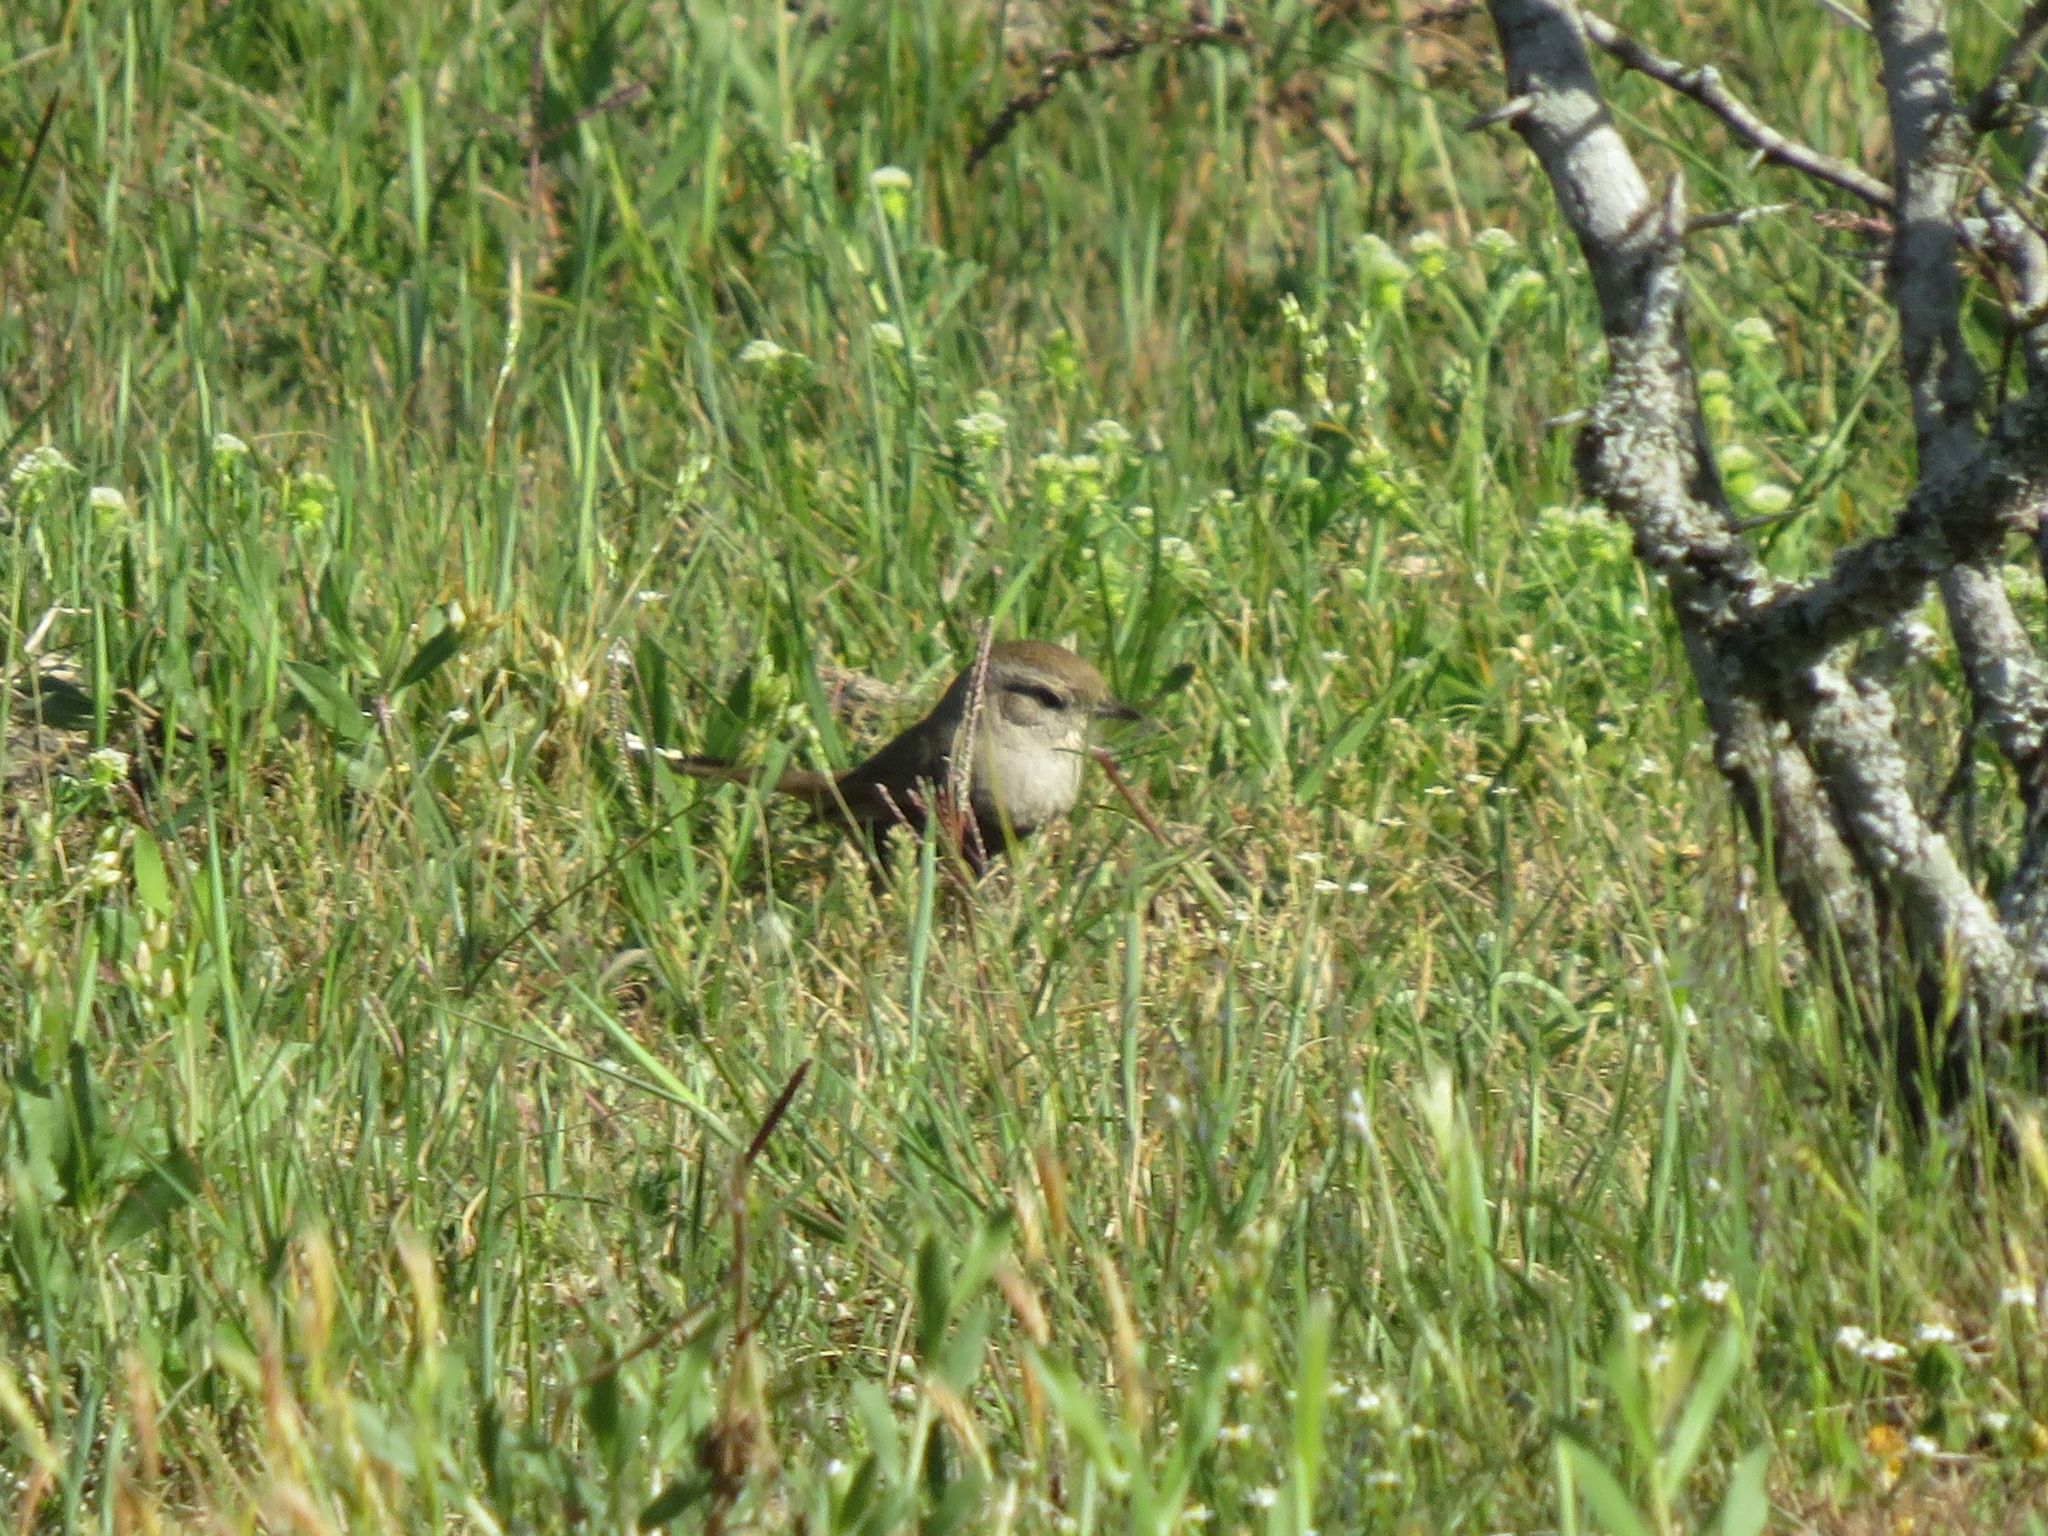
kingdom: Animalia
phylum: Chordata
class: Aves
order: Passeriformes
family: Furnariidae
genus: Phacellodomus
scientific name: Phacellodomus sibilatrix
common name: Little thornbird
